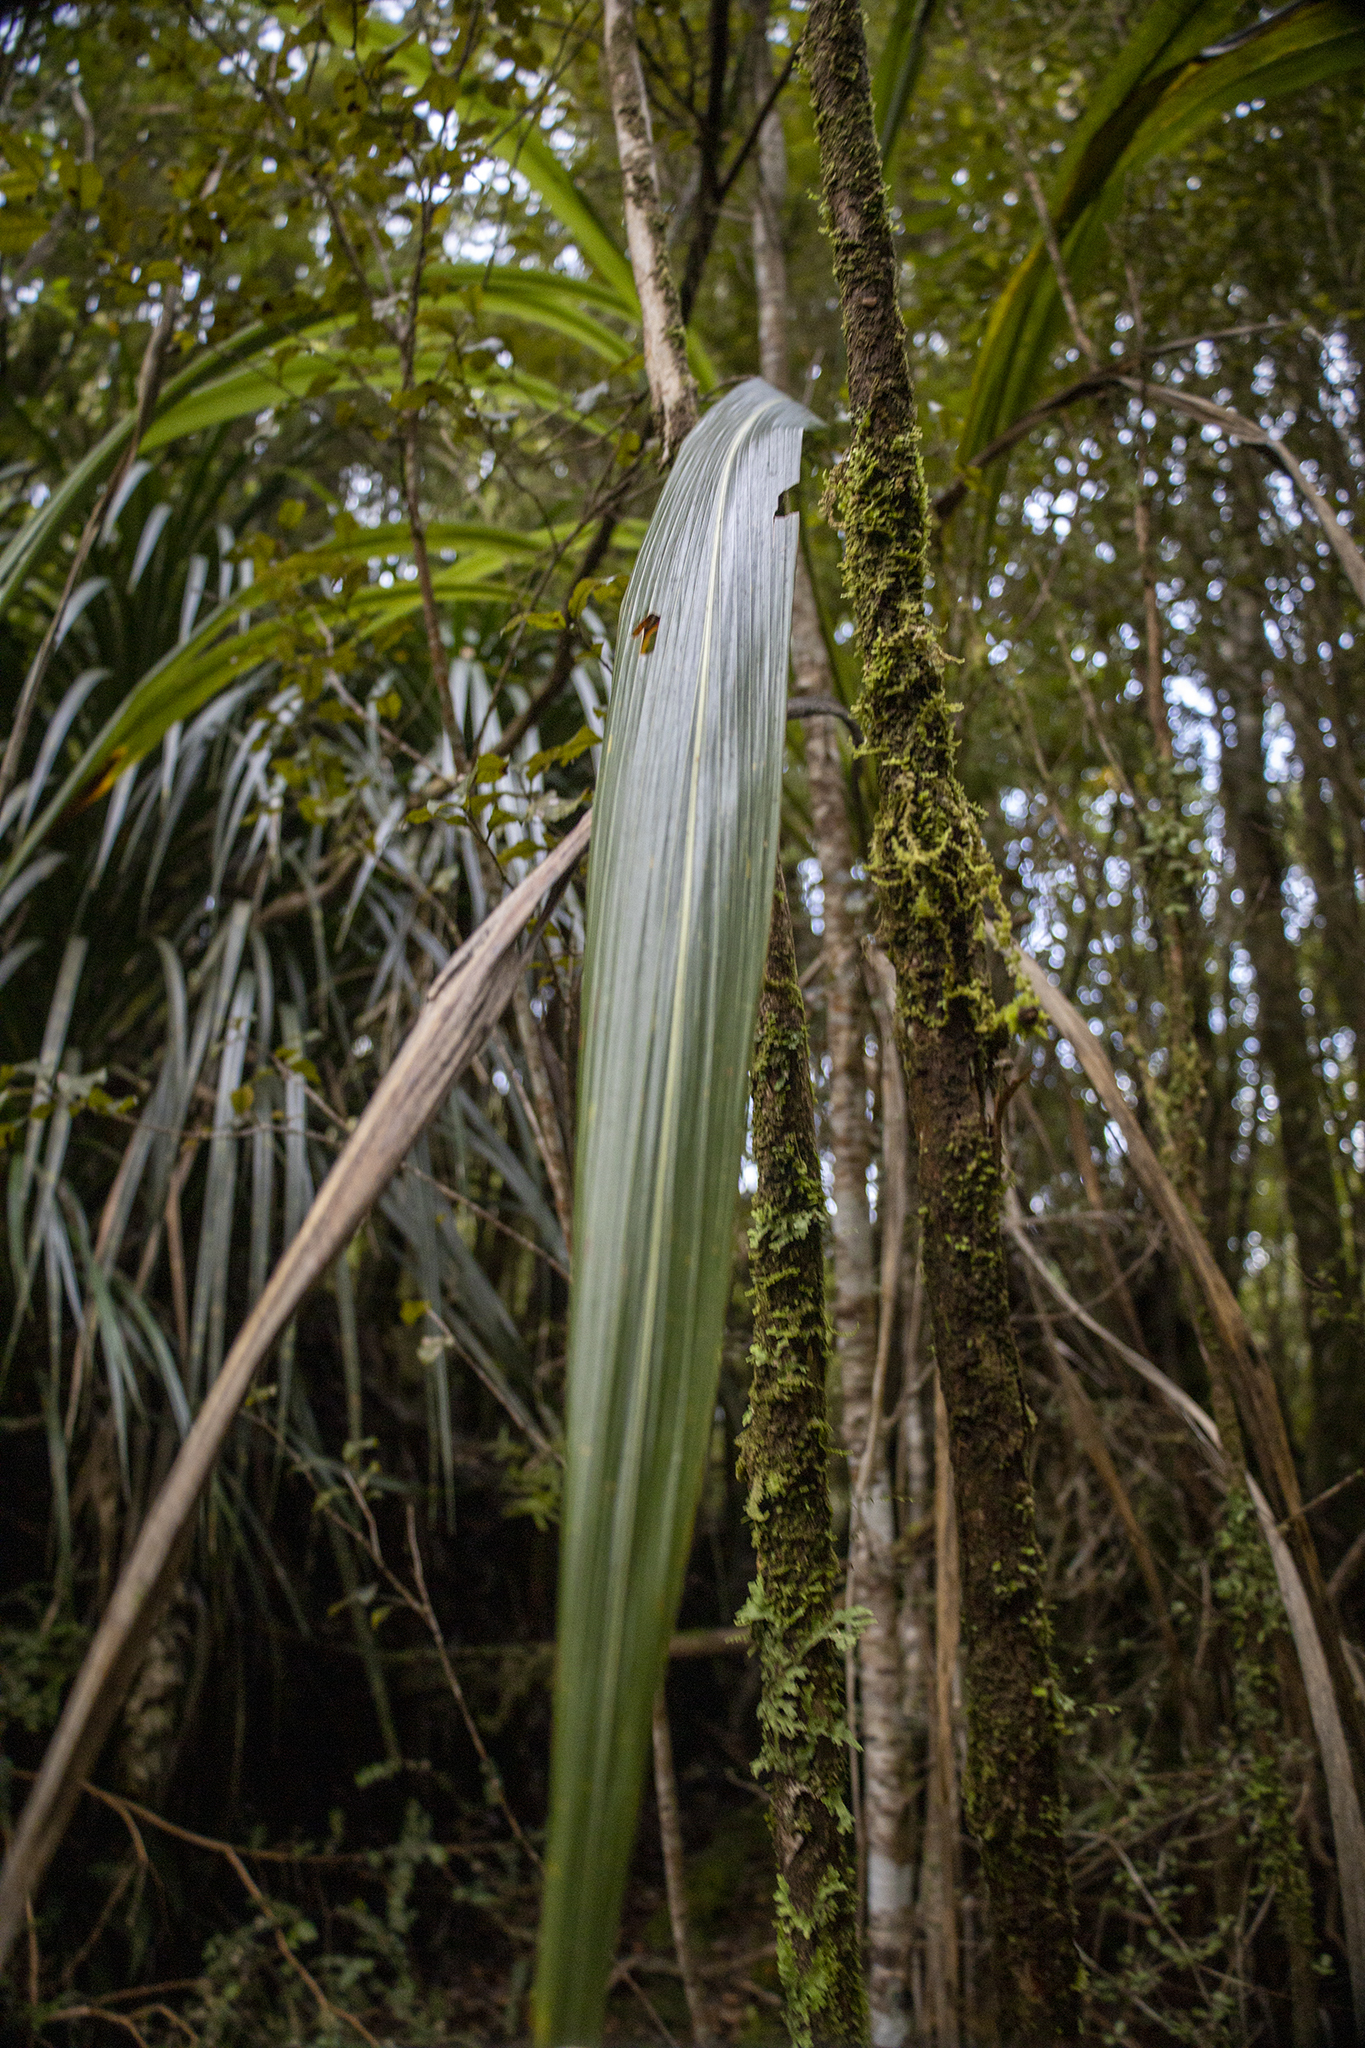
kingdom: Plantae
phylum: Tracheophyta
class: Liliopsida
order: Asparagales
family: Asparagaceae
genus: Cordyline
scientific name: Cordyline banksii
